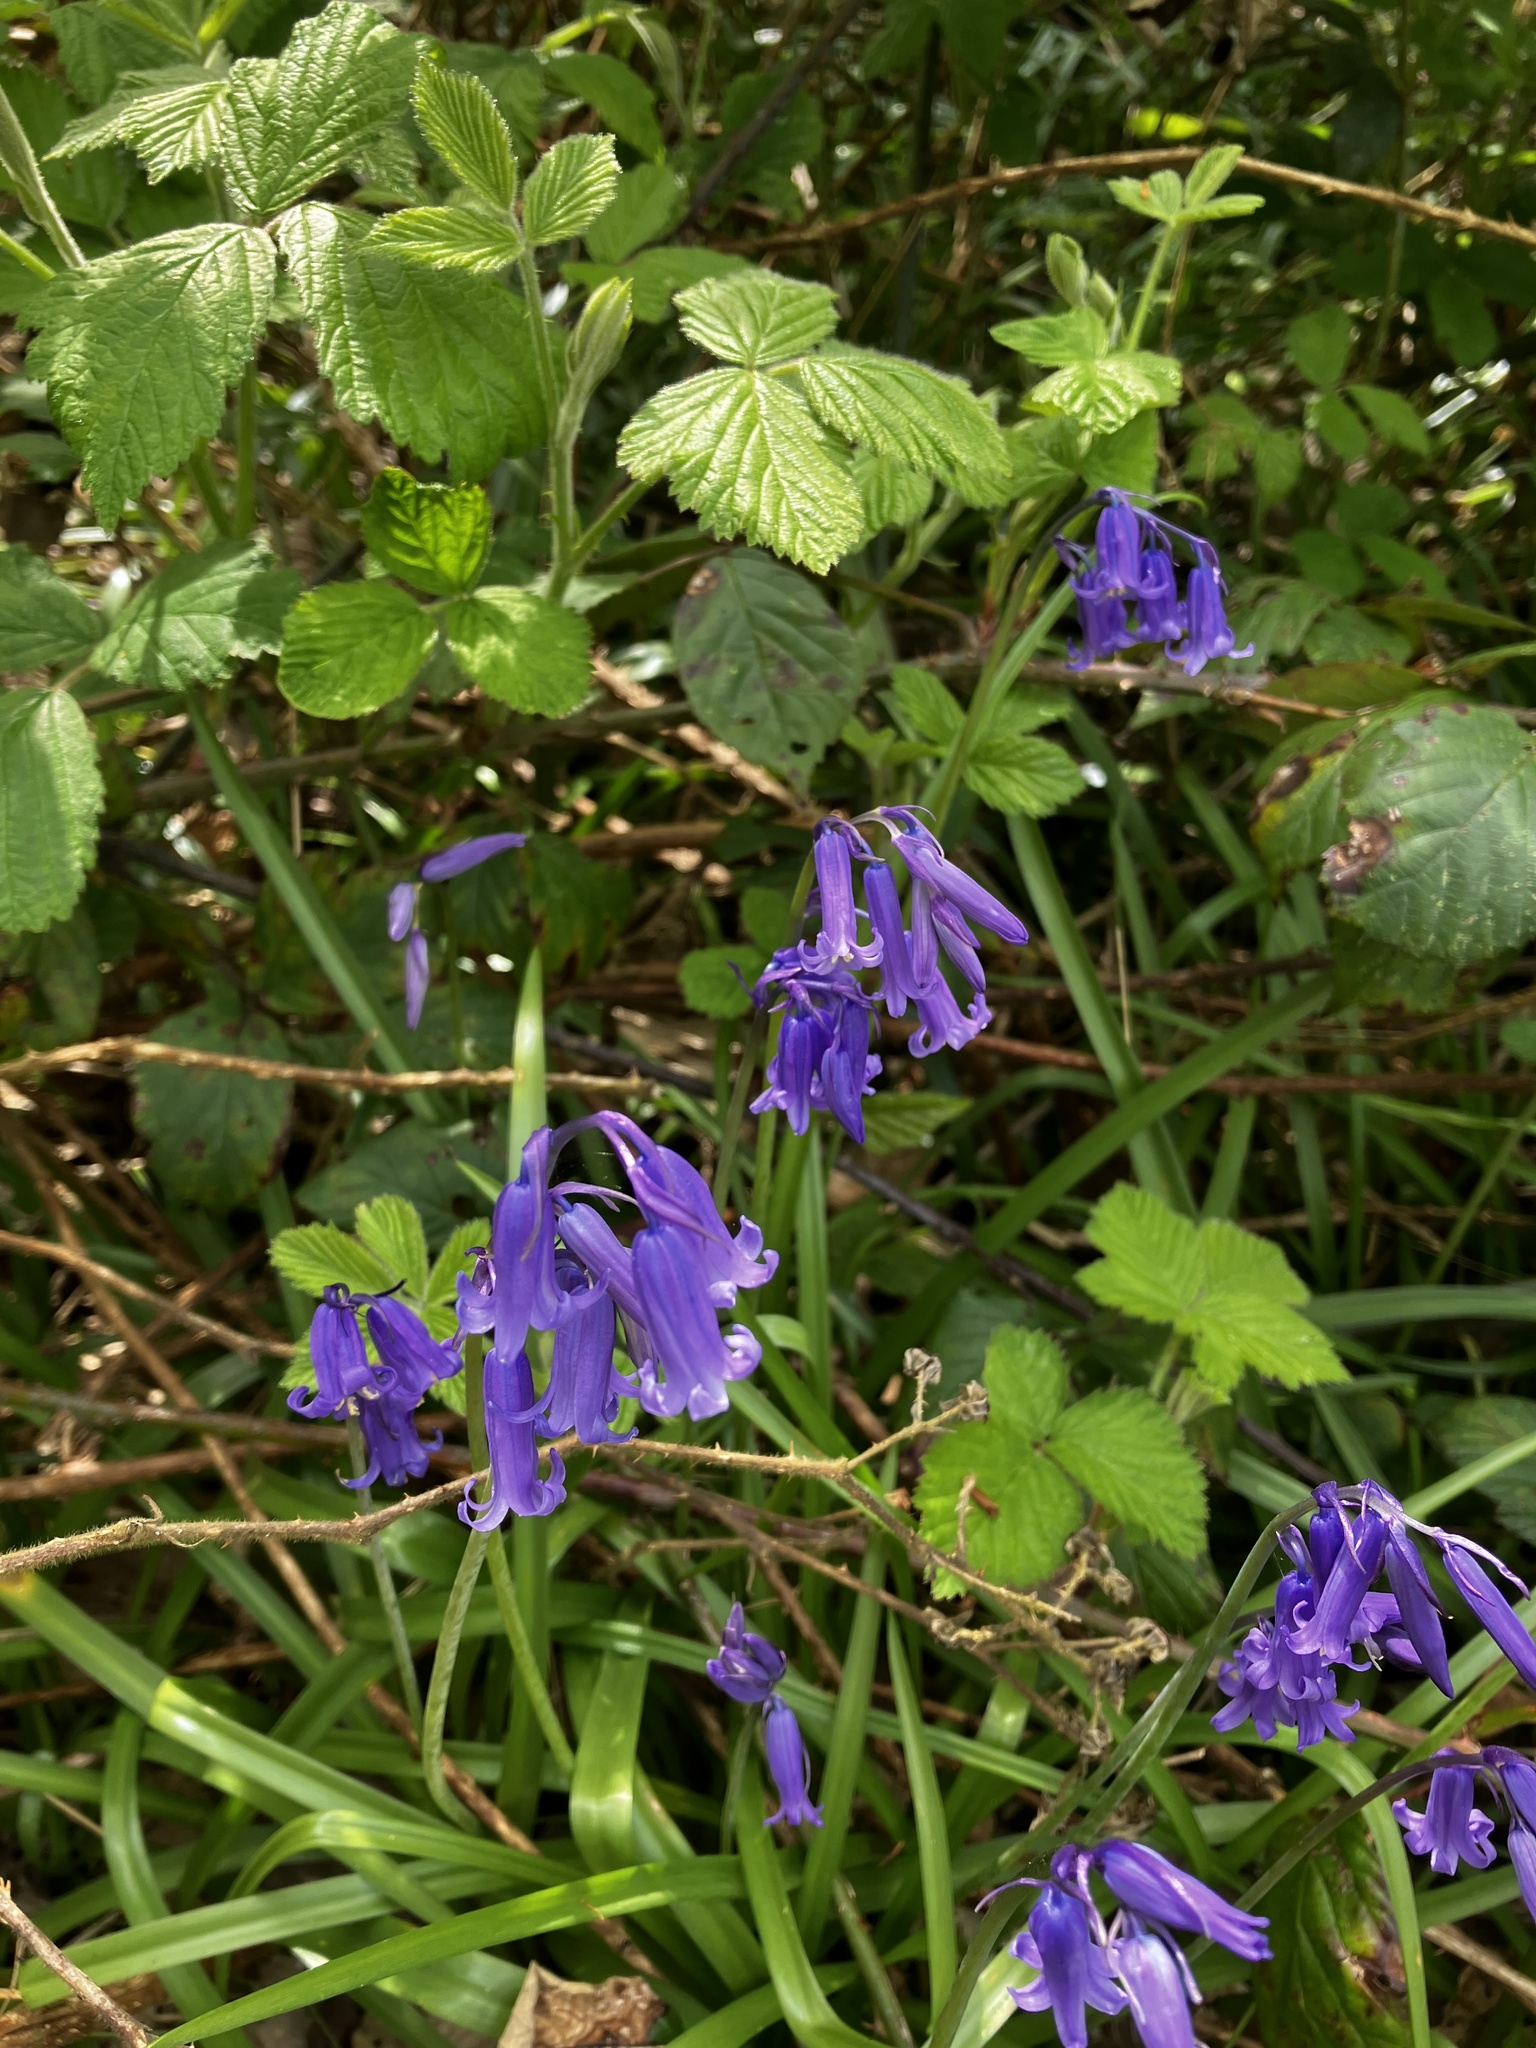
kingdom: Plantae
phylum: Tracheophyta
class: Liliopsida
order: Asparagales
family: Asparagaceae
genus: Hyacinthoides
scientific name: Hyacinthoides non-scripta
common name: Bluebell
